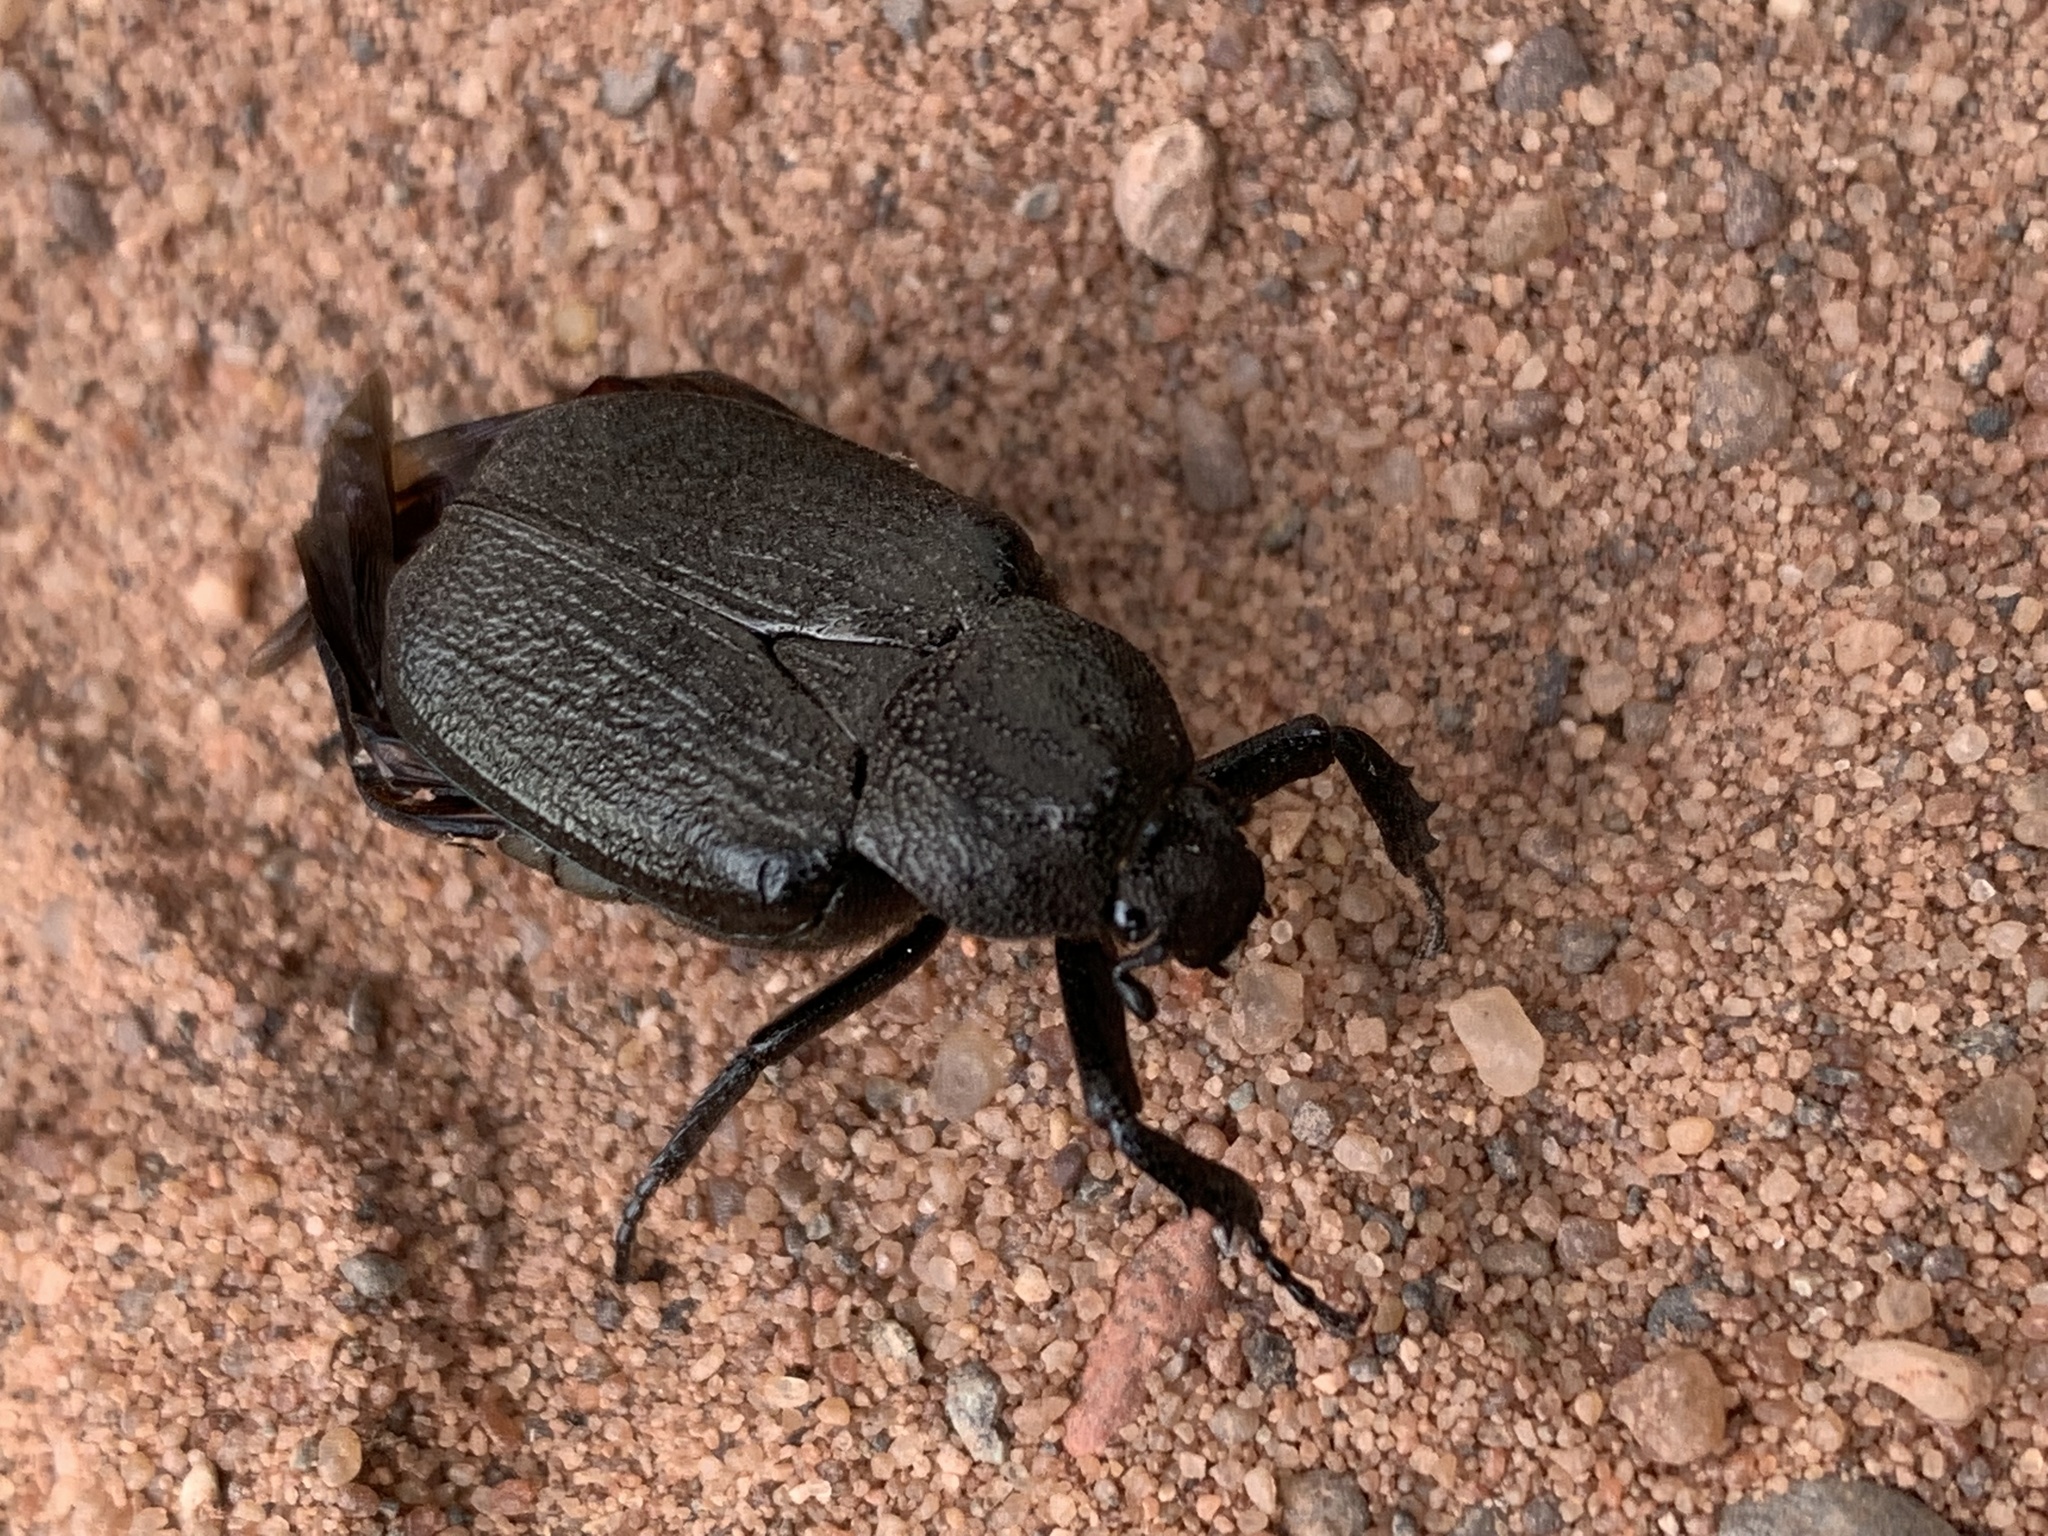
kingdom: Animalia
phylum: Arthropoda
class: Insecta
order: Coleoptera
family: Scarabaeidae
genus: Osmoderma
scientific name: Osmoderma scabra
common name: Rough hermit beetle
